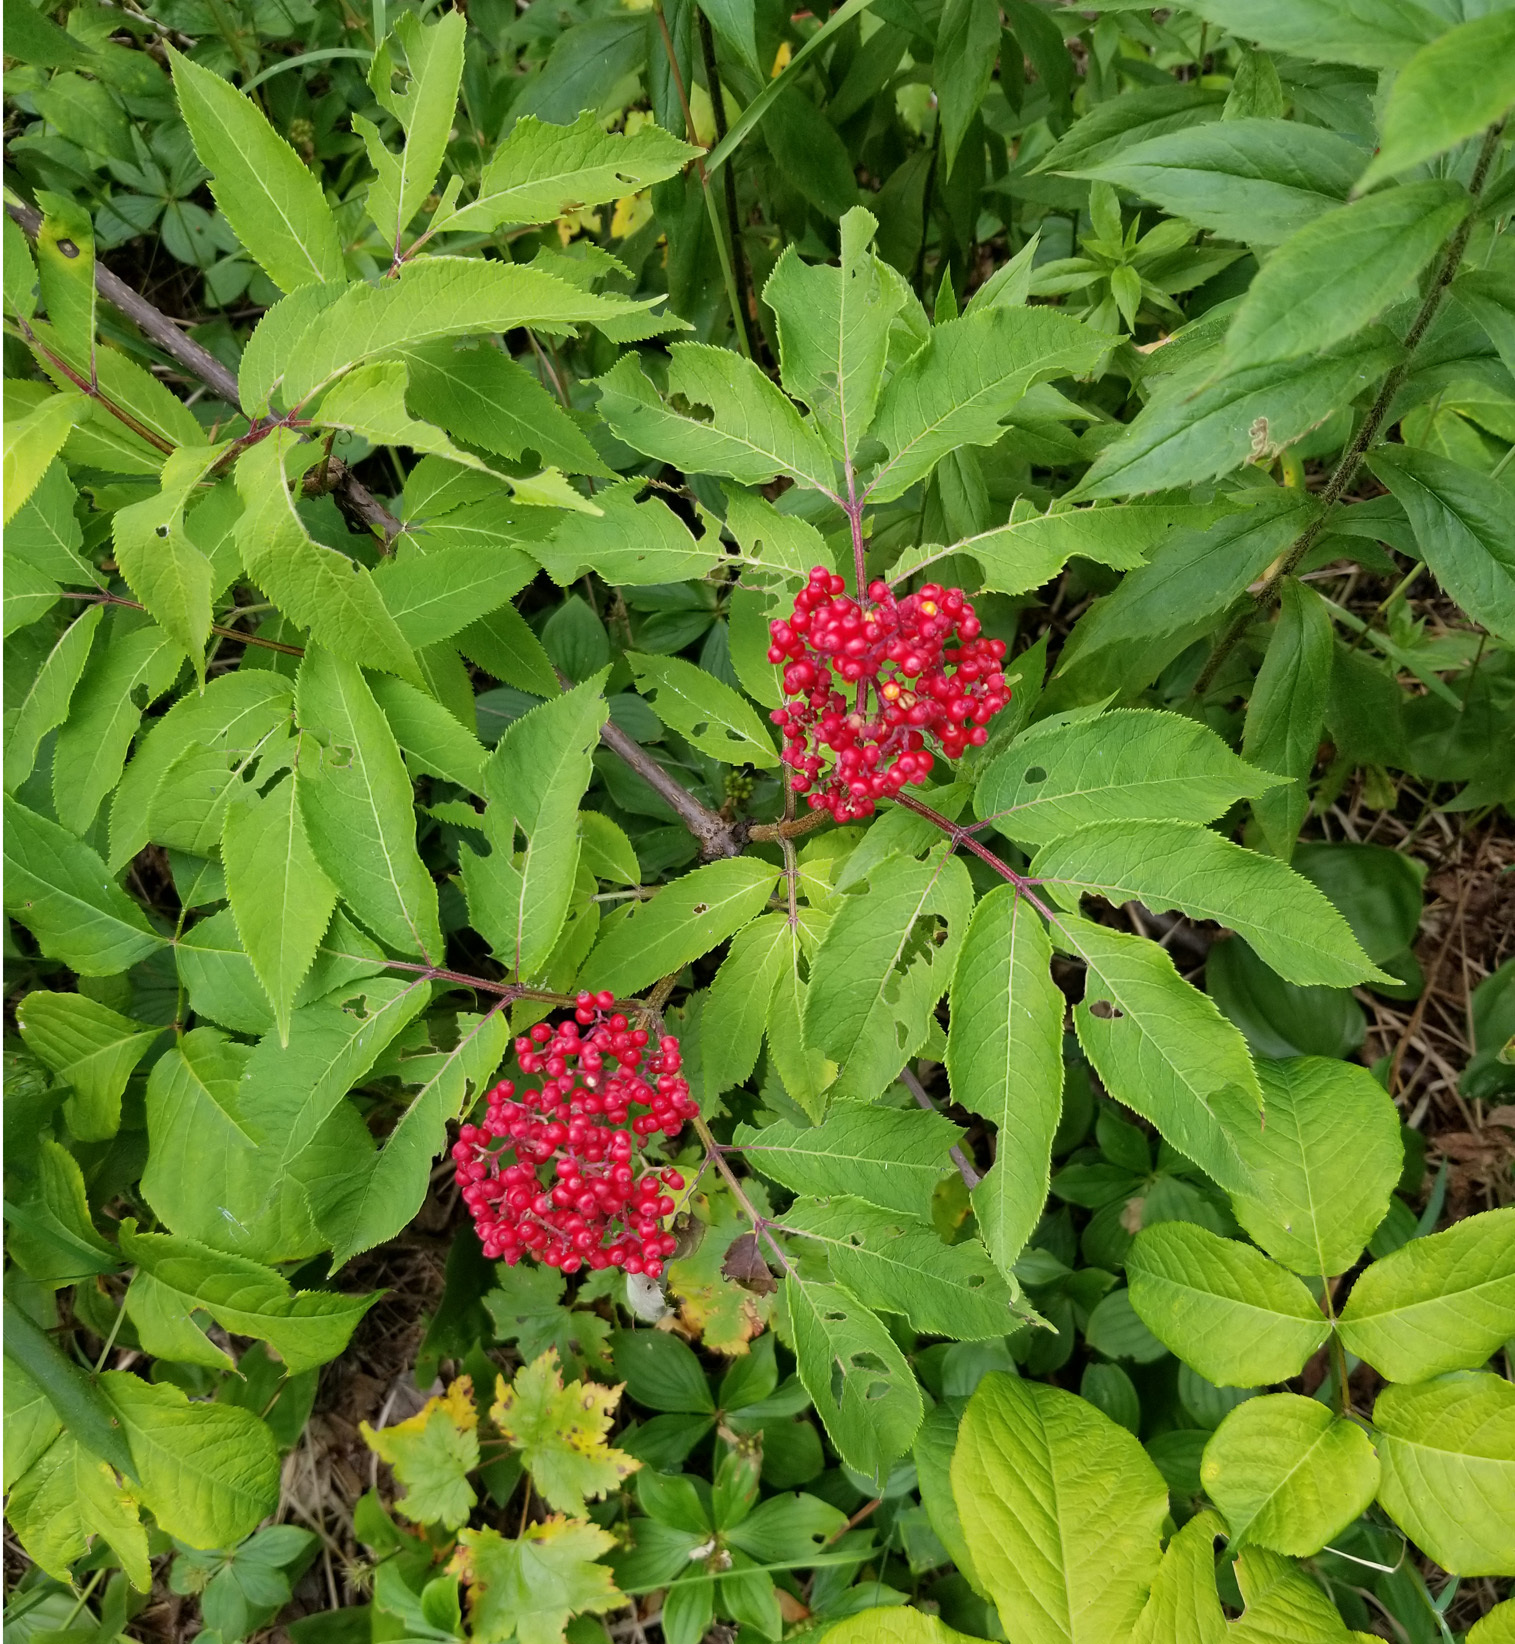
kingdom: Plantae
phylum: Tracheophyta
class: Magnoliopsida
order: Dipsacales
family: Viburnaceae
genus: Sambucus
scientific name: Sambucus racemosa
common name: Red-berried elder
